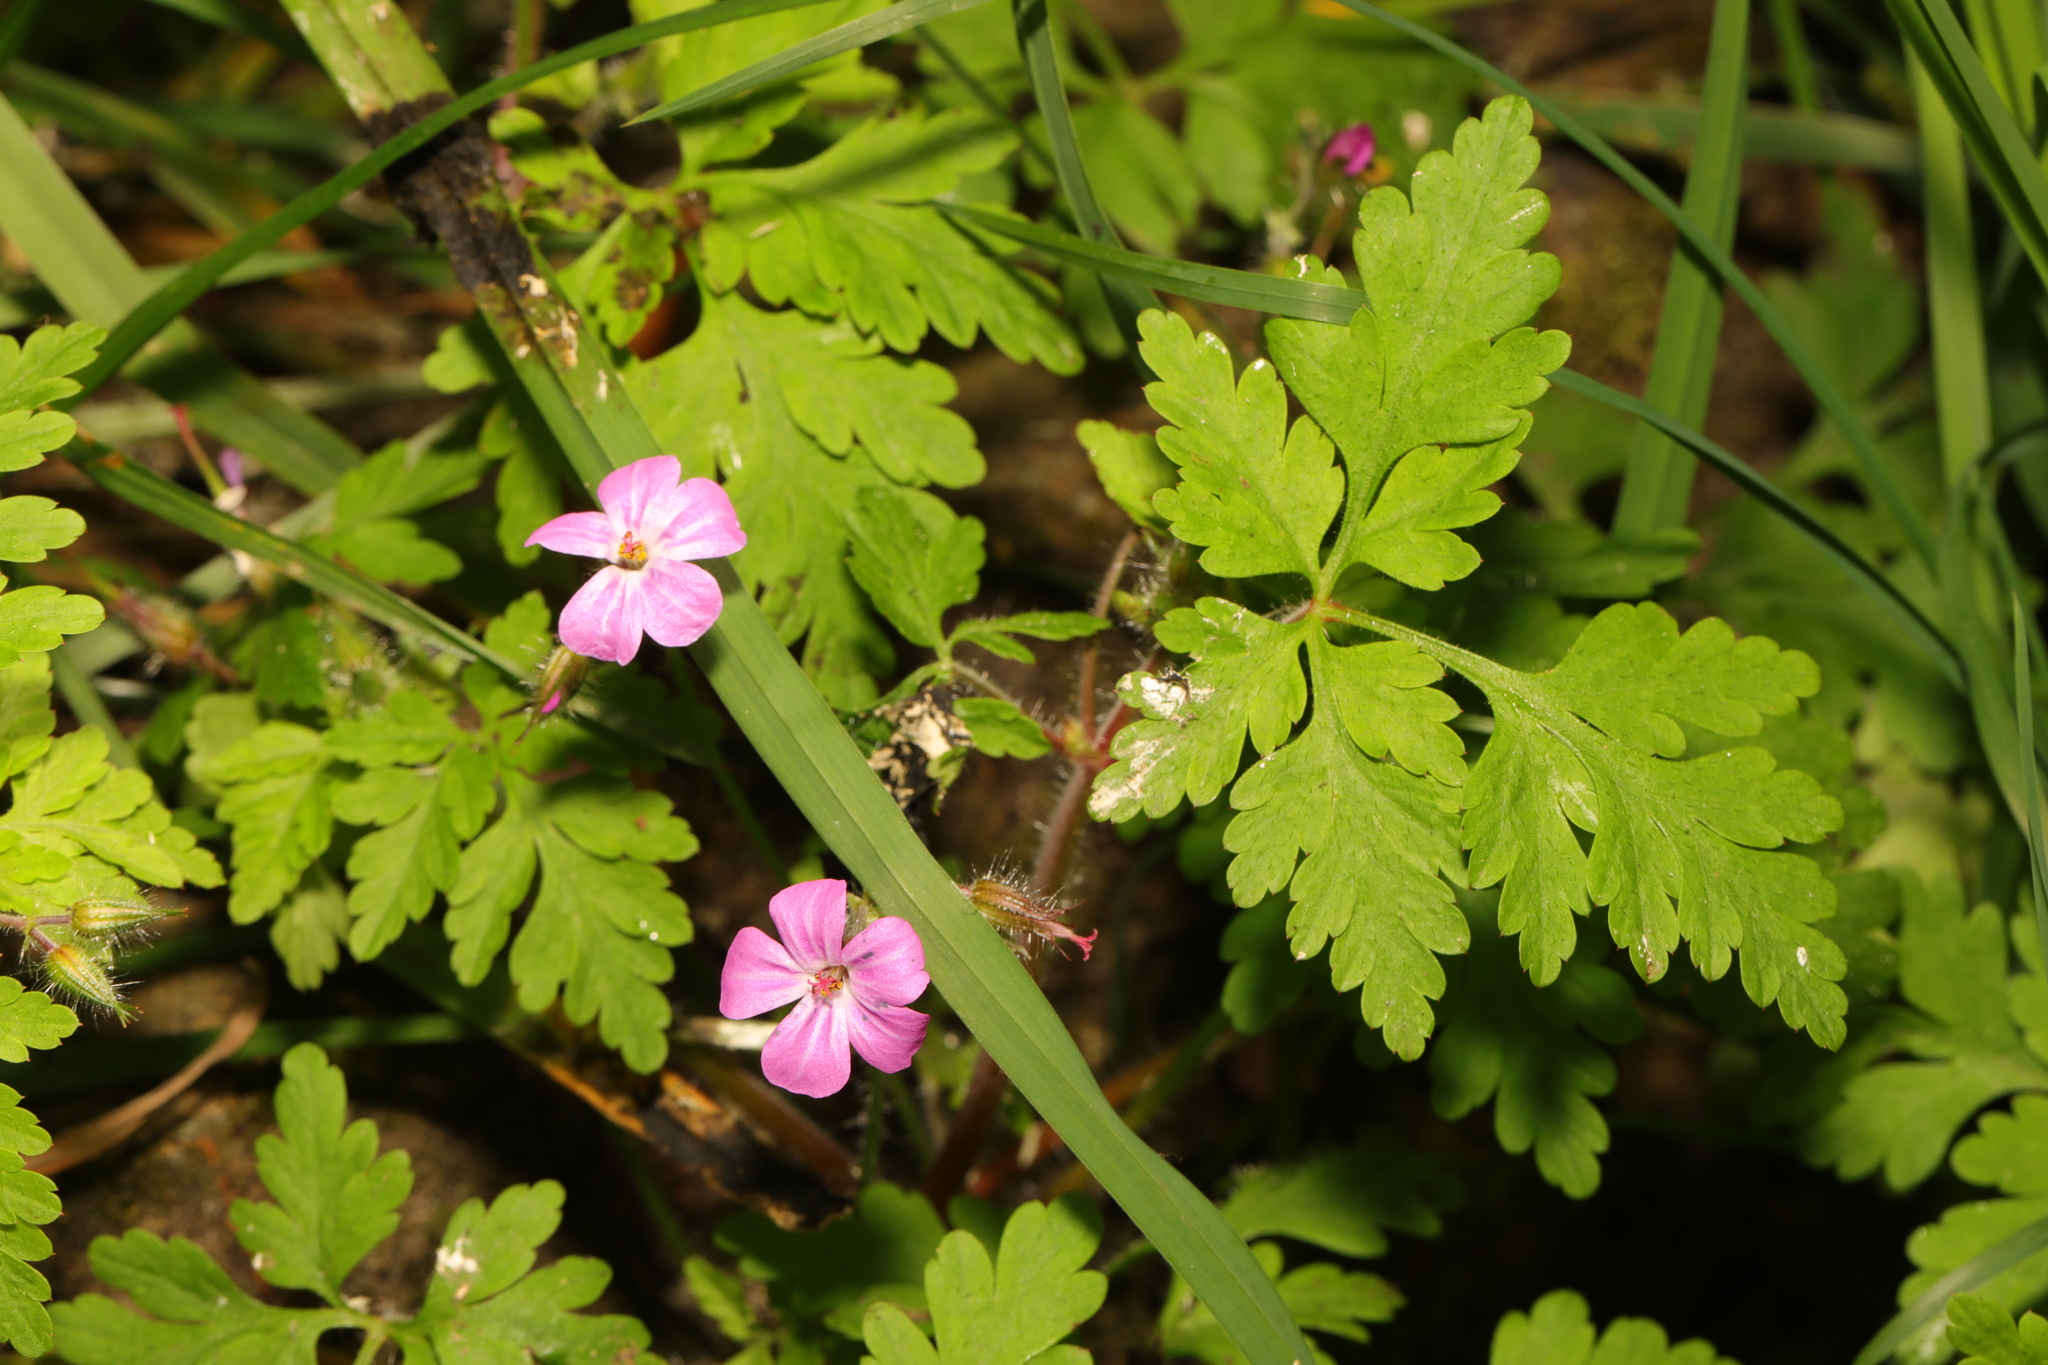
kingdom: Plantae
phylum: Tracheophyta
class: Magnoliopsida
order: Geraniales
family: Geraniaceae
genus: Geranium
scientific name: Geranium robertianum
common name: Herb-robert
